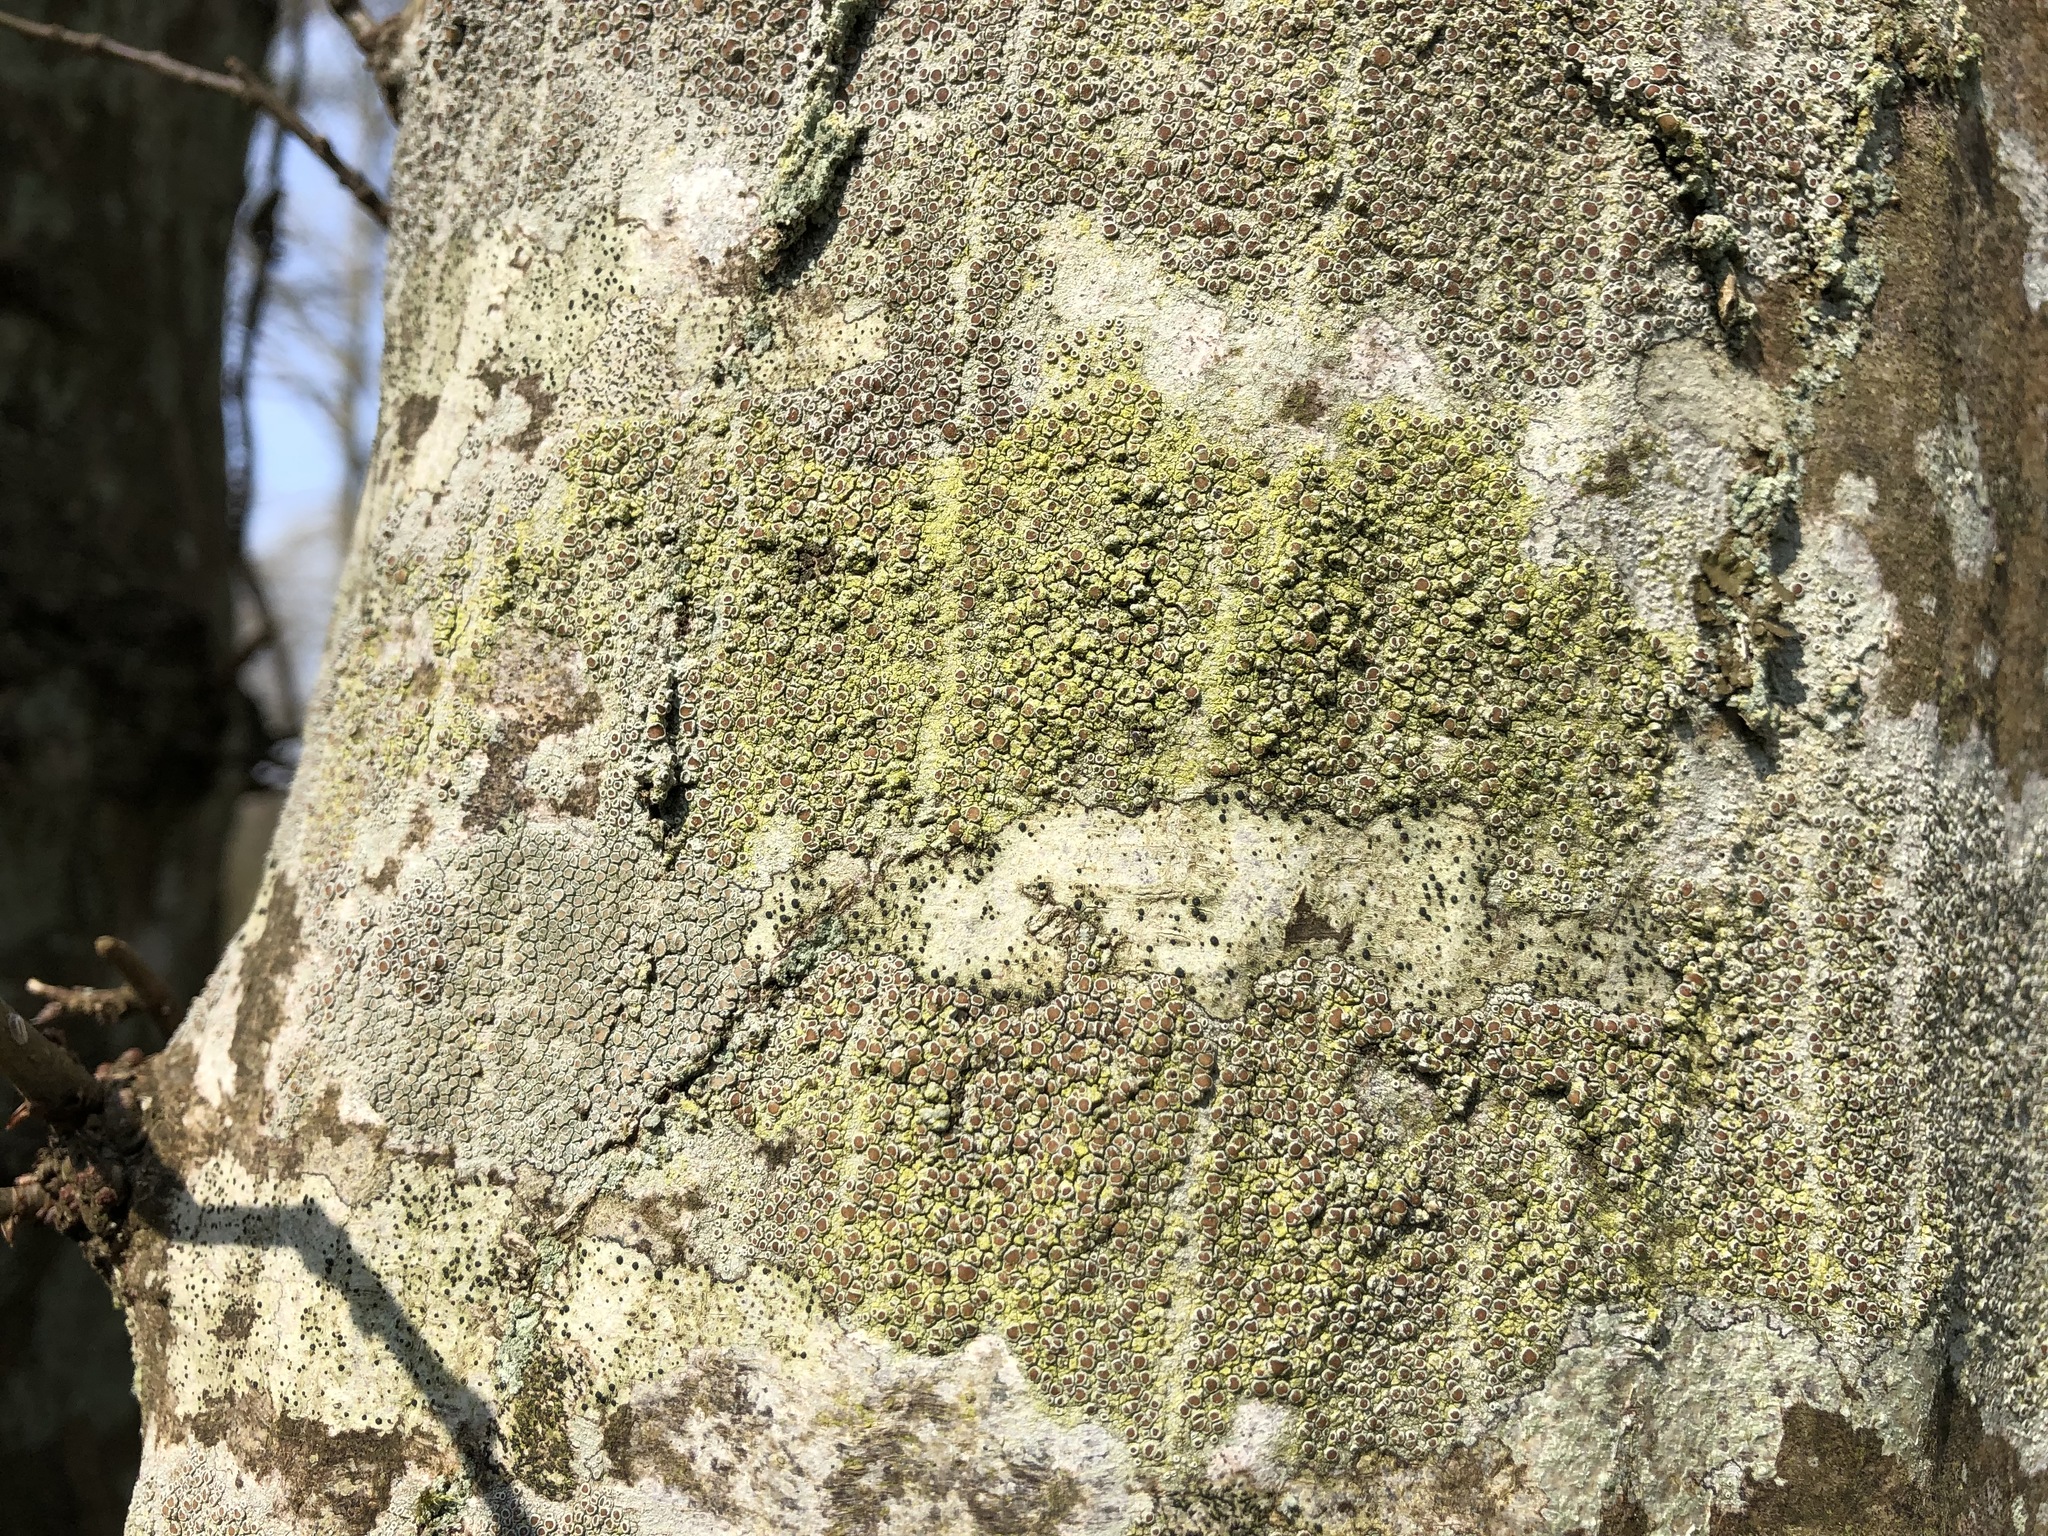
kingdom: Fungi
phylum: Ascomycota
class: Lecanoromycetes
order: Lecanorales
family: Lecanoraceae
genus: Lecanora
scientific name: Lecanora
